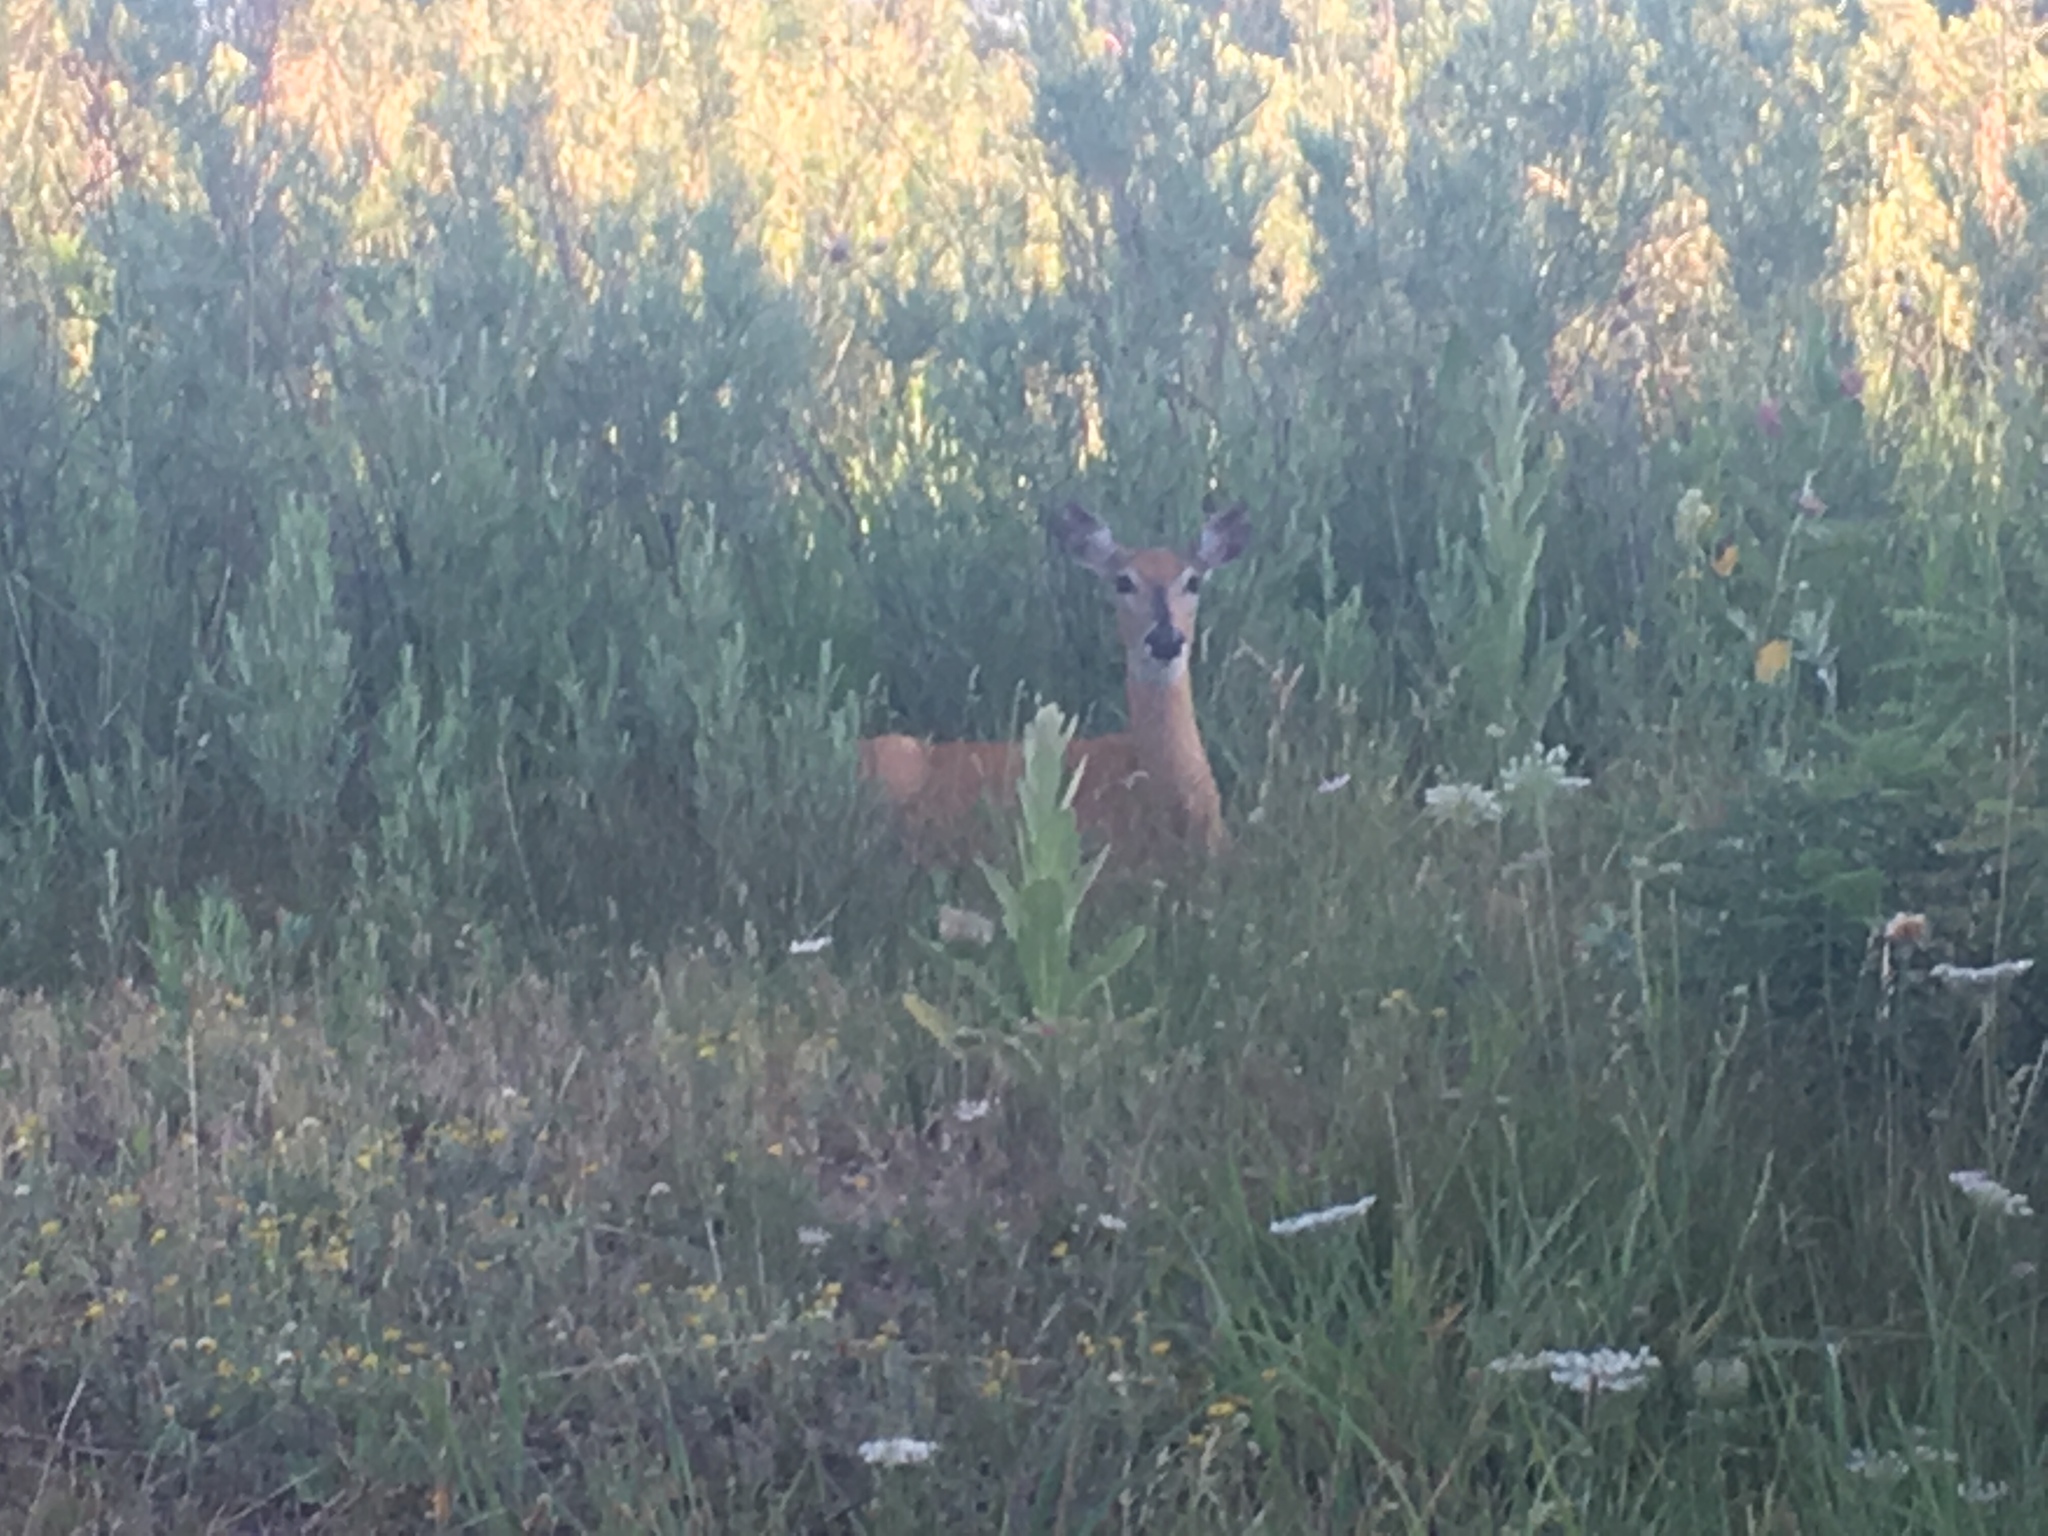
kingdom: Animalia
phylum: Chordata
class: Mammalia
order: Artiodactyla
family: Cervidae
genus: Odocoileus
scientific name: Odocoileus virginianus
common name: White-tailed deer
